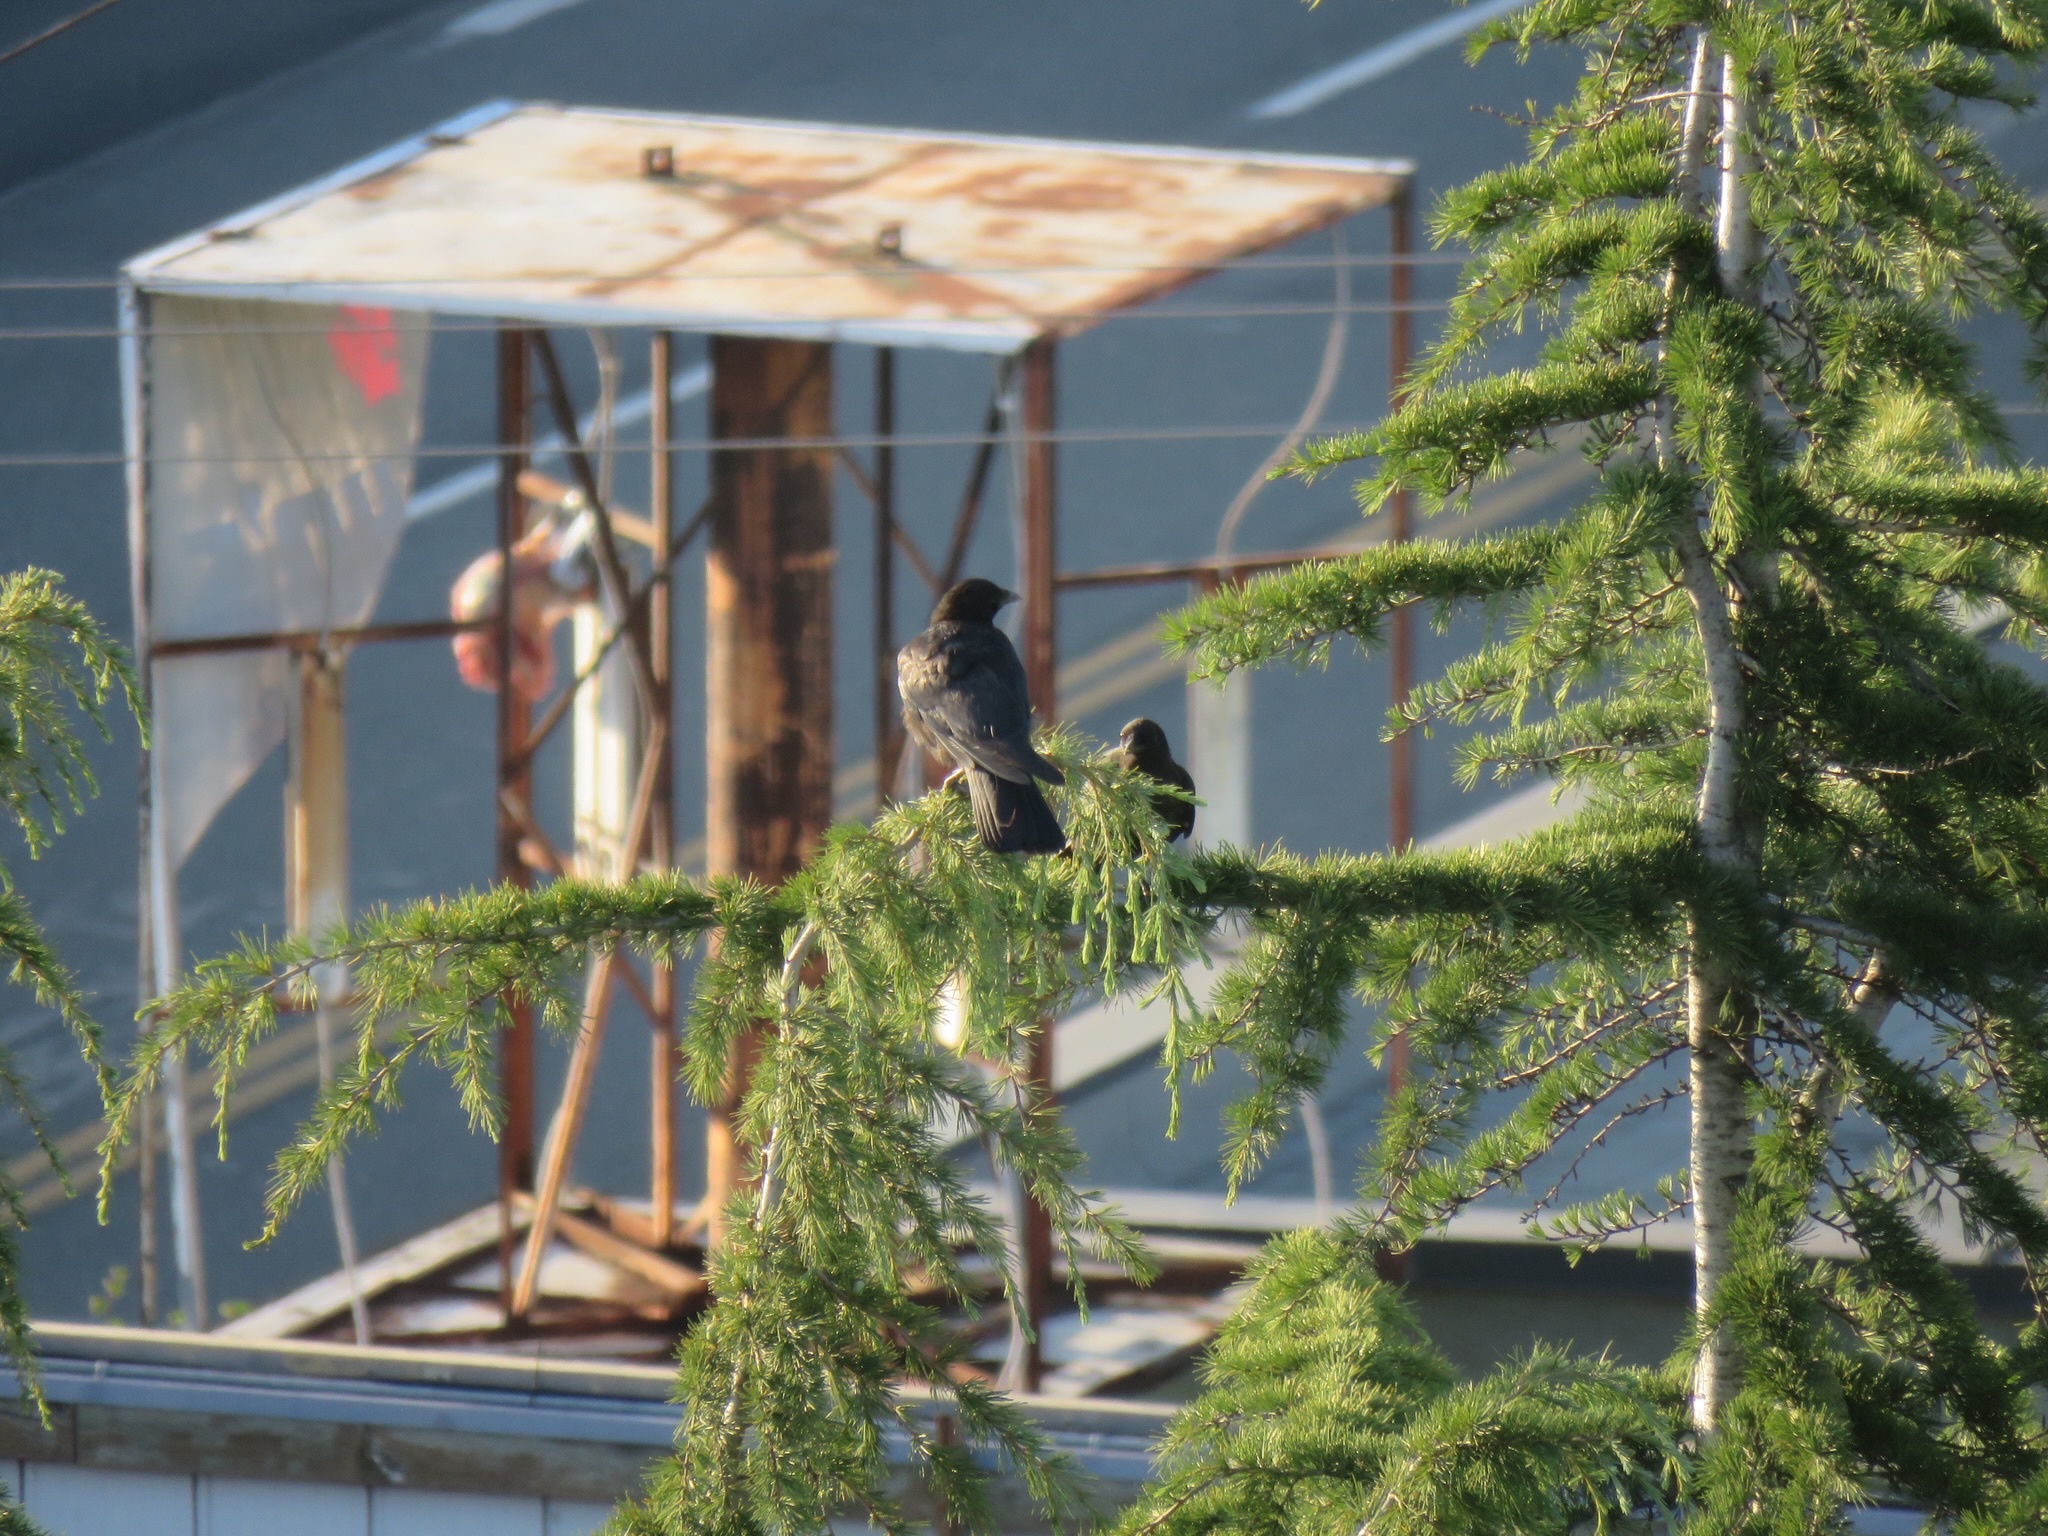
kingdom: Animalia
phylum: Chordata
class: Aves
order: Passeriformes
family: Corvidae
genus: Corvus
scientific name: Corvus brachyrhynchos
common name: American crow
